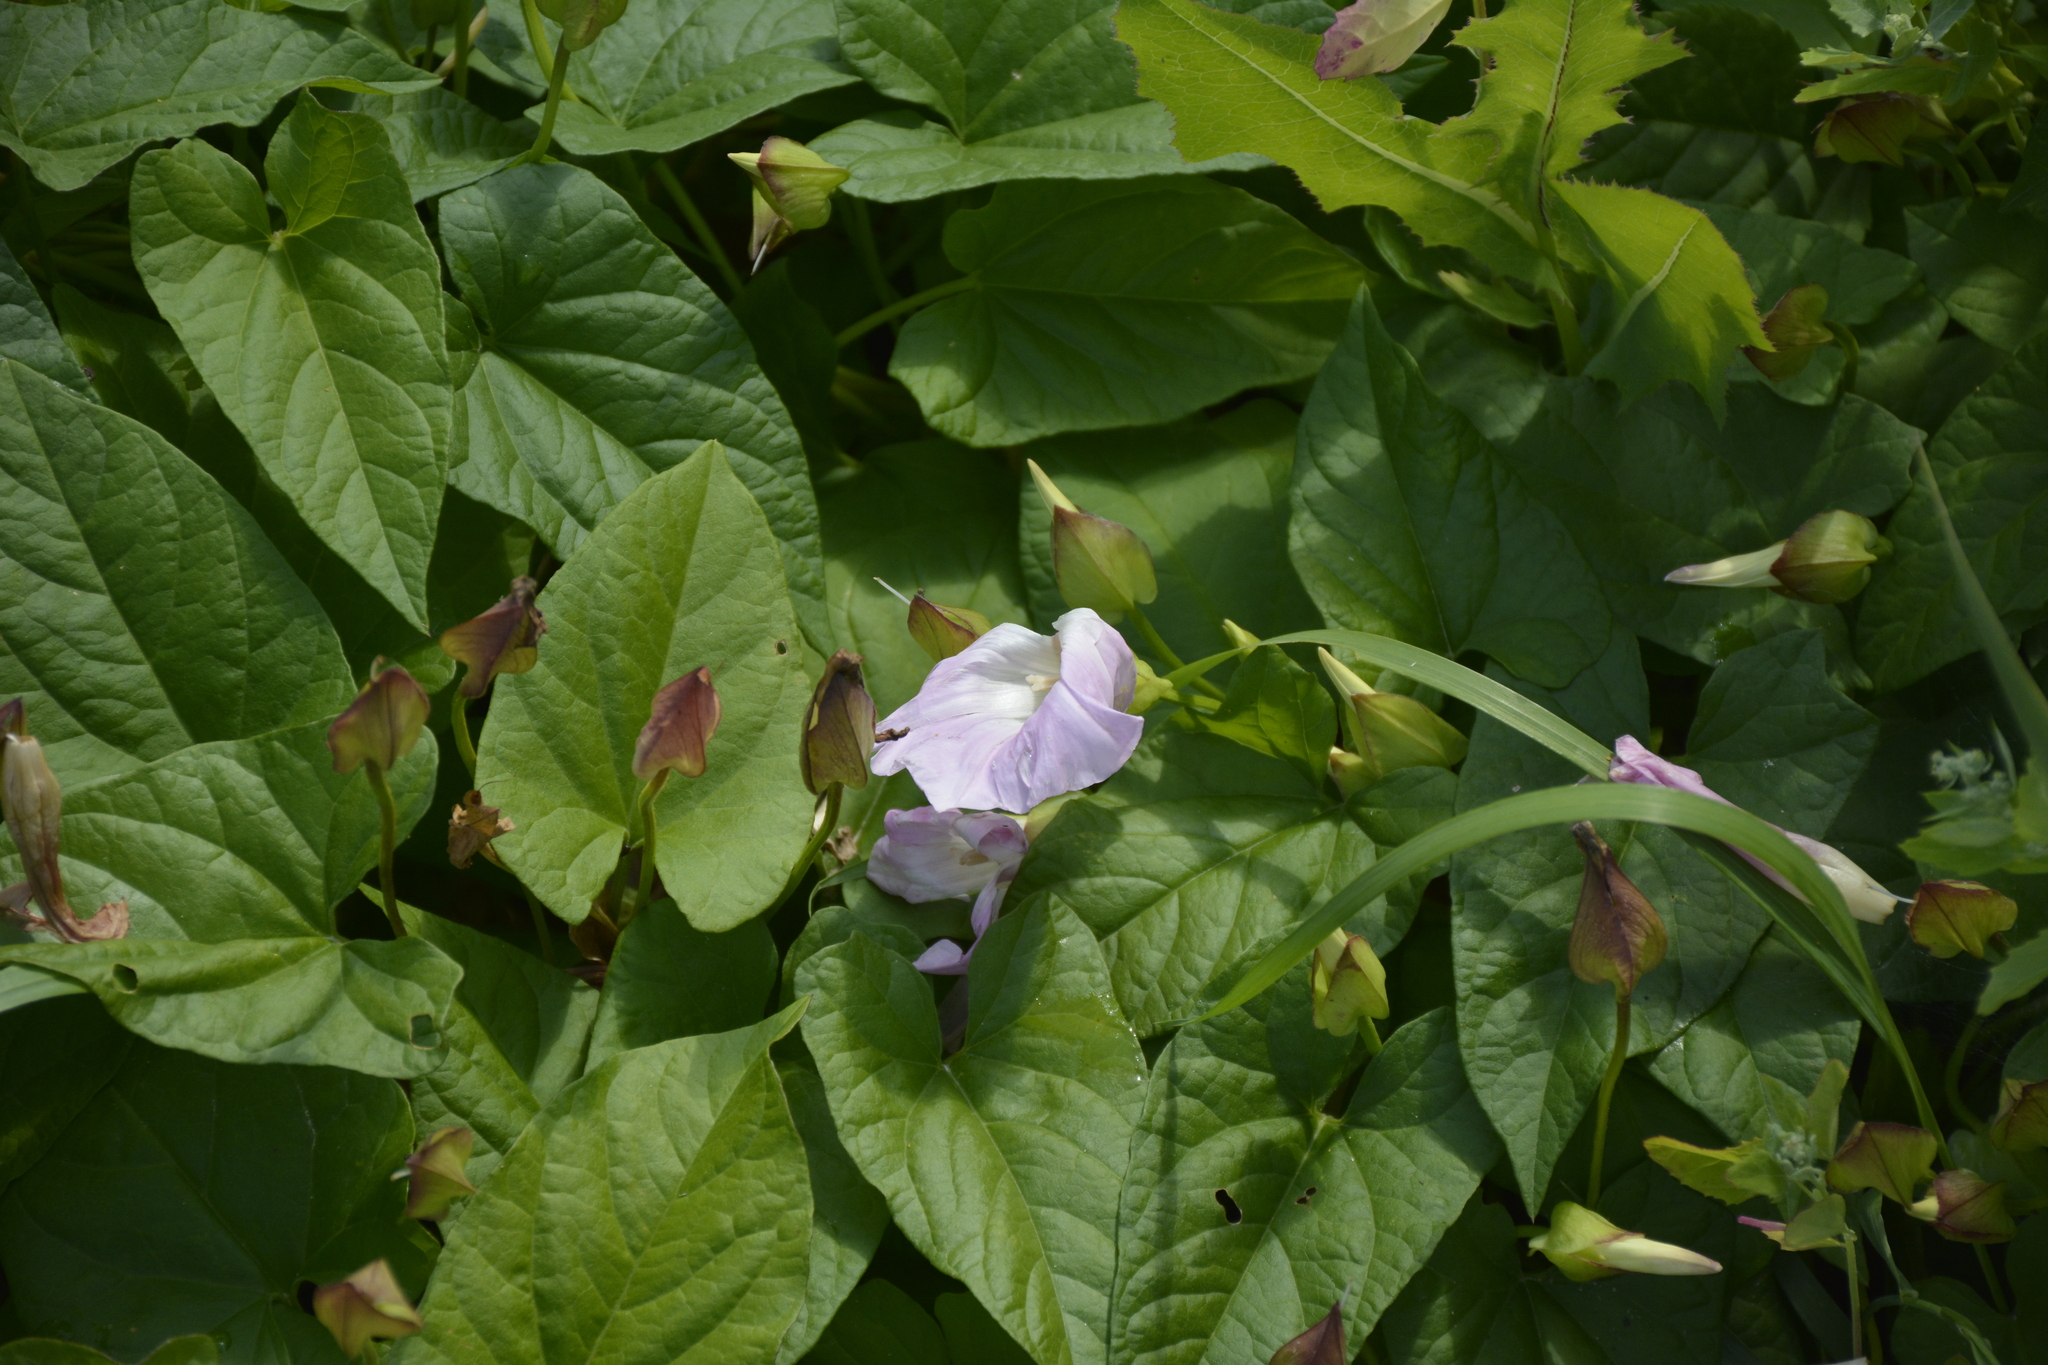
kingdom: Plantae
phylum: Tracheophyta
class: Magnoliopsida
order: Solanales
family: Convolvulaceae
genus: Calystegia
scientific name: Calystegia sepium
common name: Hedge bindweed
